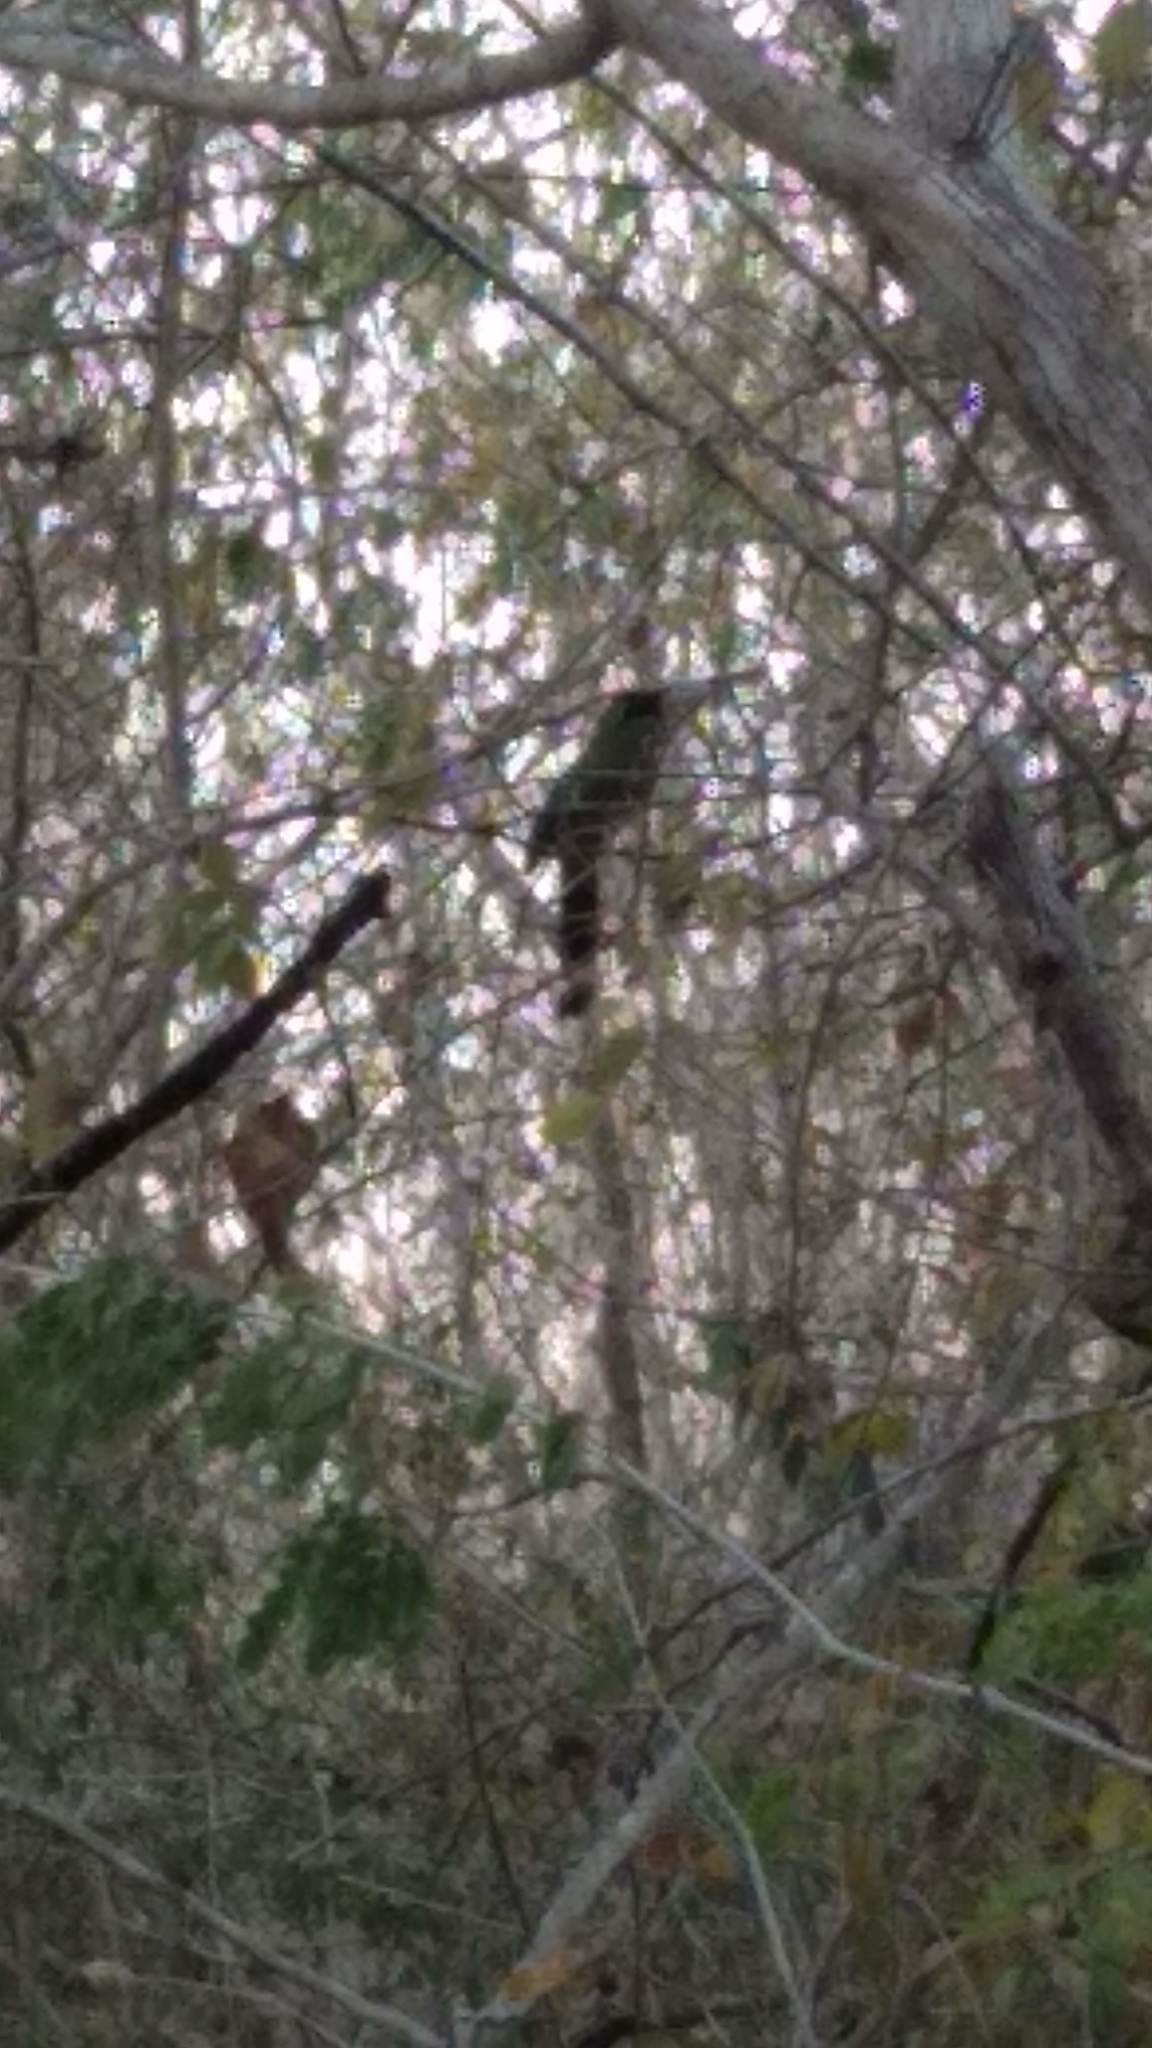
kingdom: Animalia
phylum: Chordata
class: Aves
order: Coraciiformes
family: Momotidae
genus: Momotus
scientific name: Momotus lessonii
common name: Lesson's motmot
